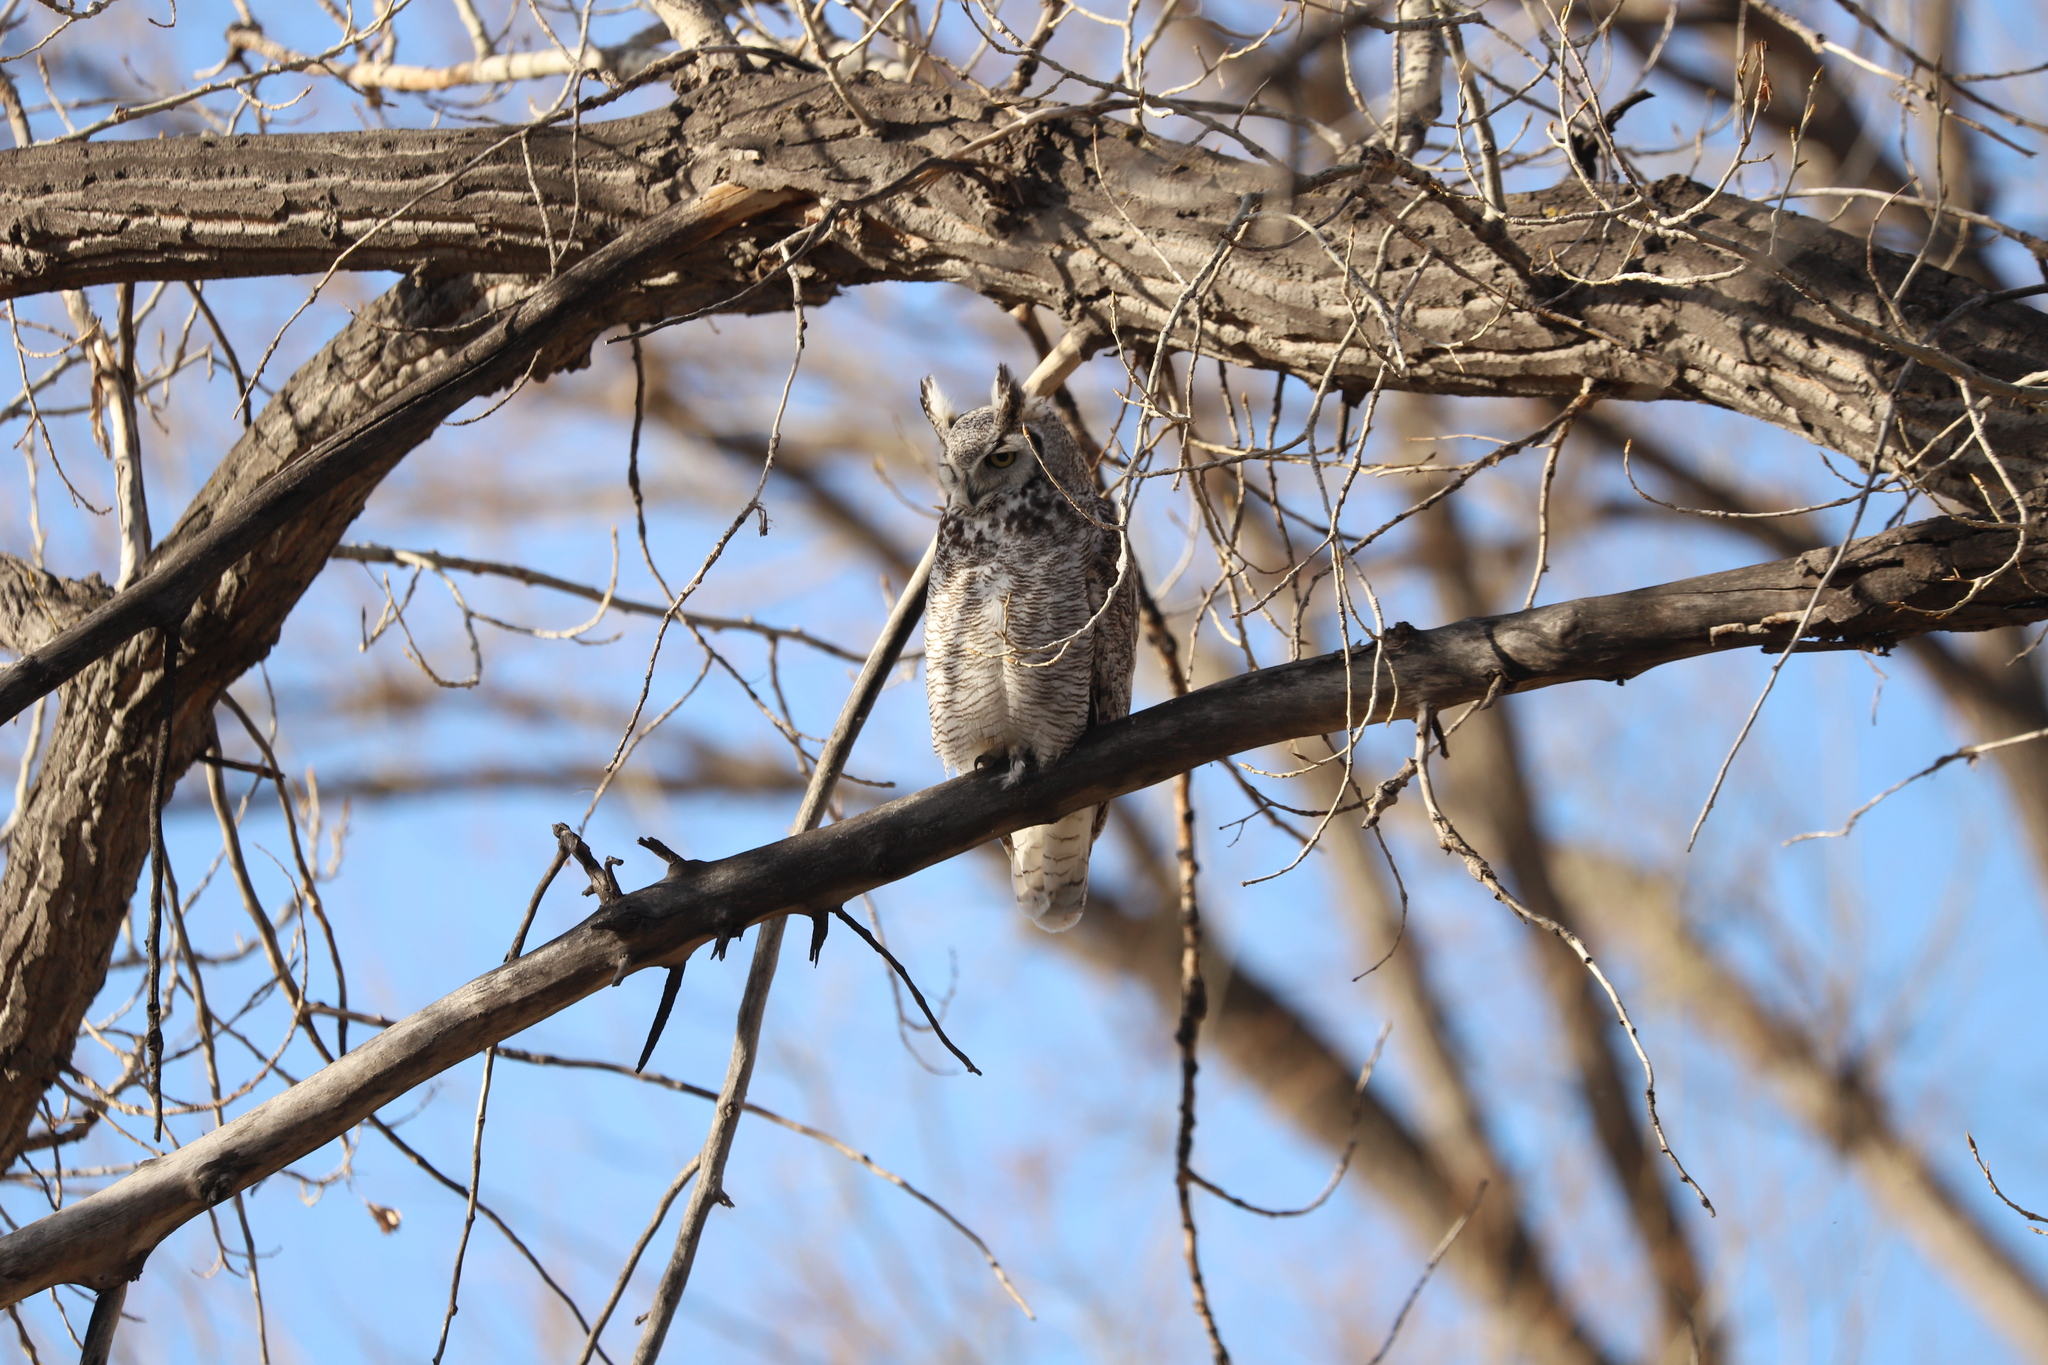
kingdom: Animalia
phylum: Chordata
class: Aves
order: Strigiformes
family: Strigidae
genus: Bubo
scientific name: Bubo virginianus
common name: Great horned owl
